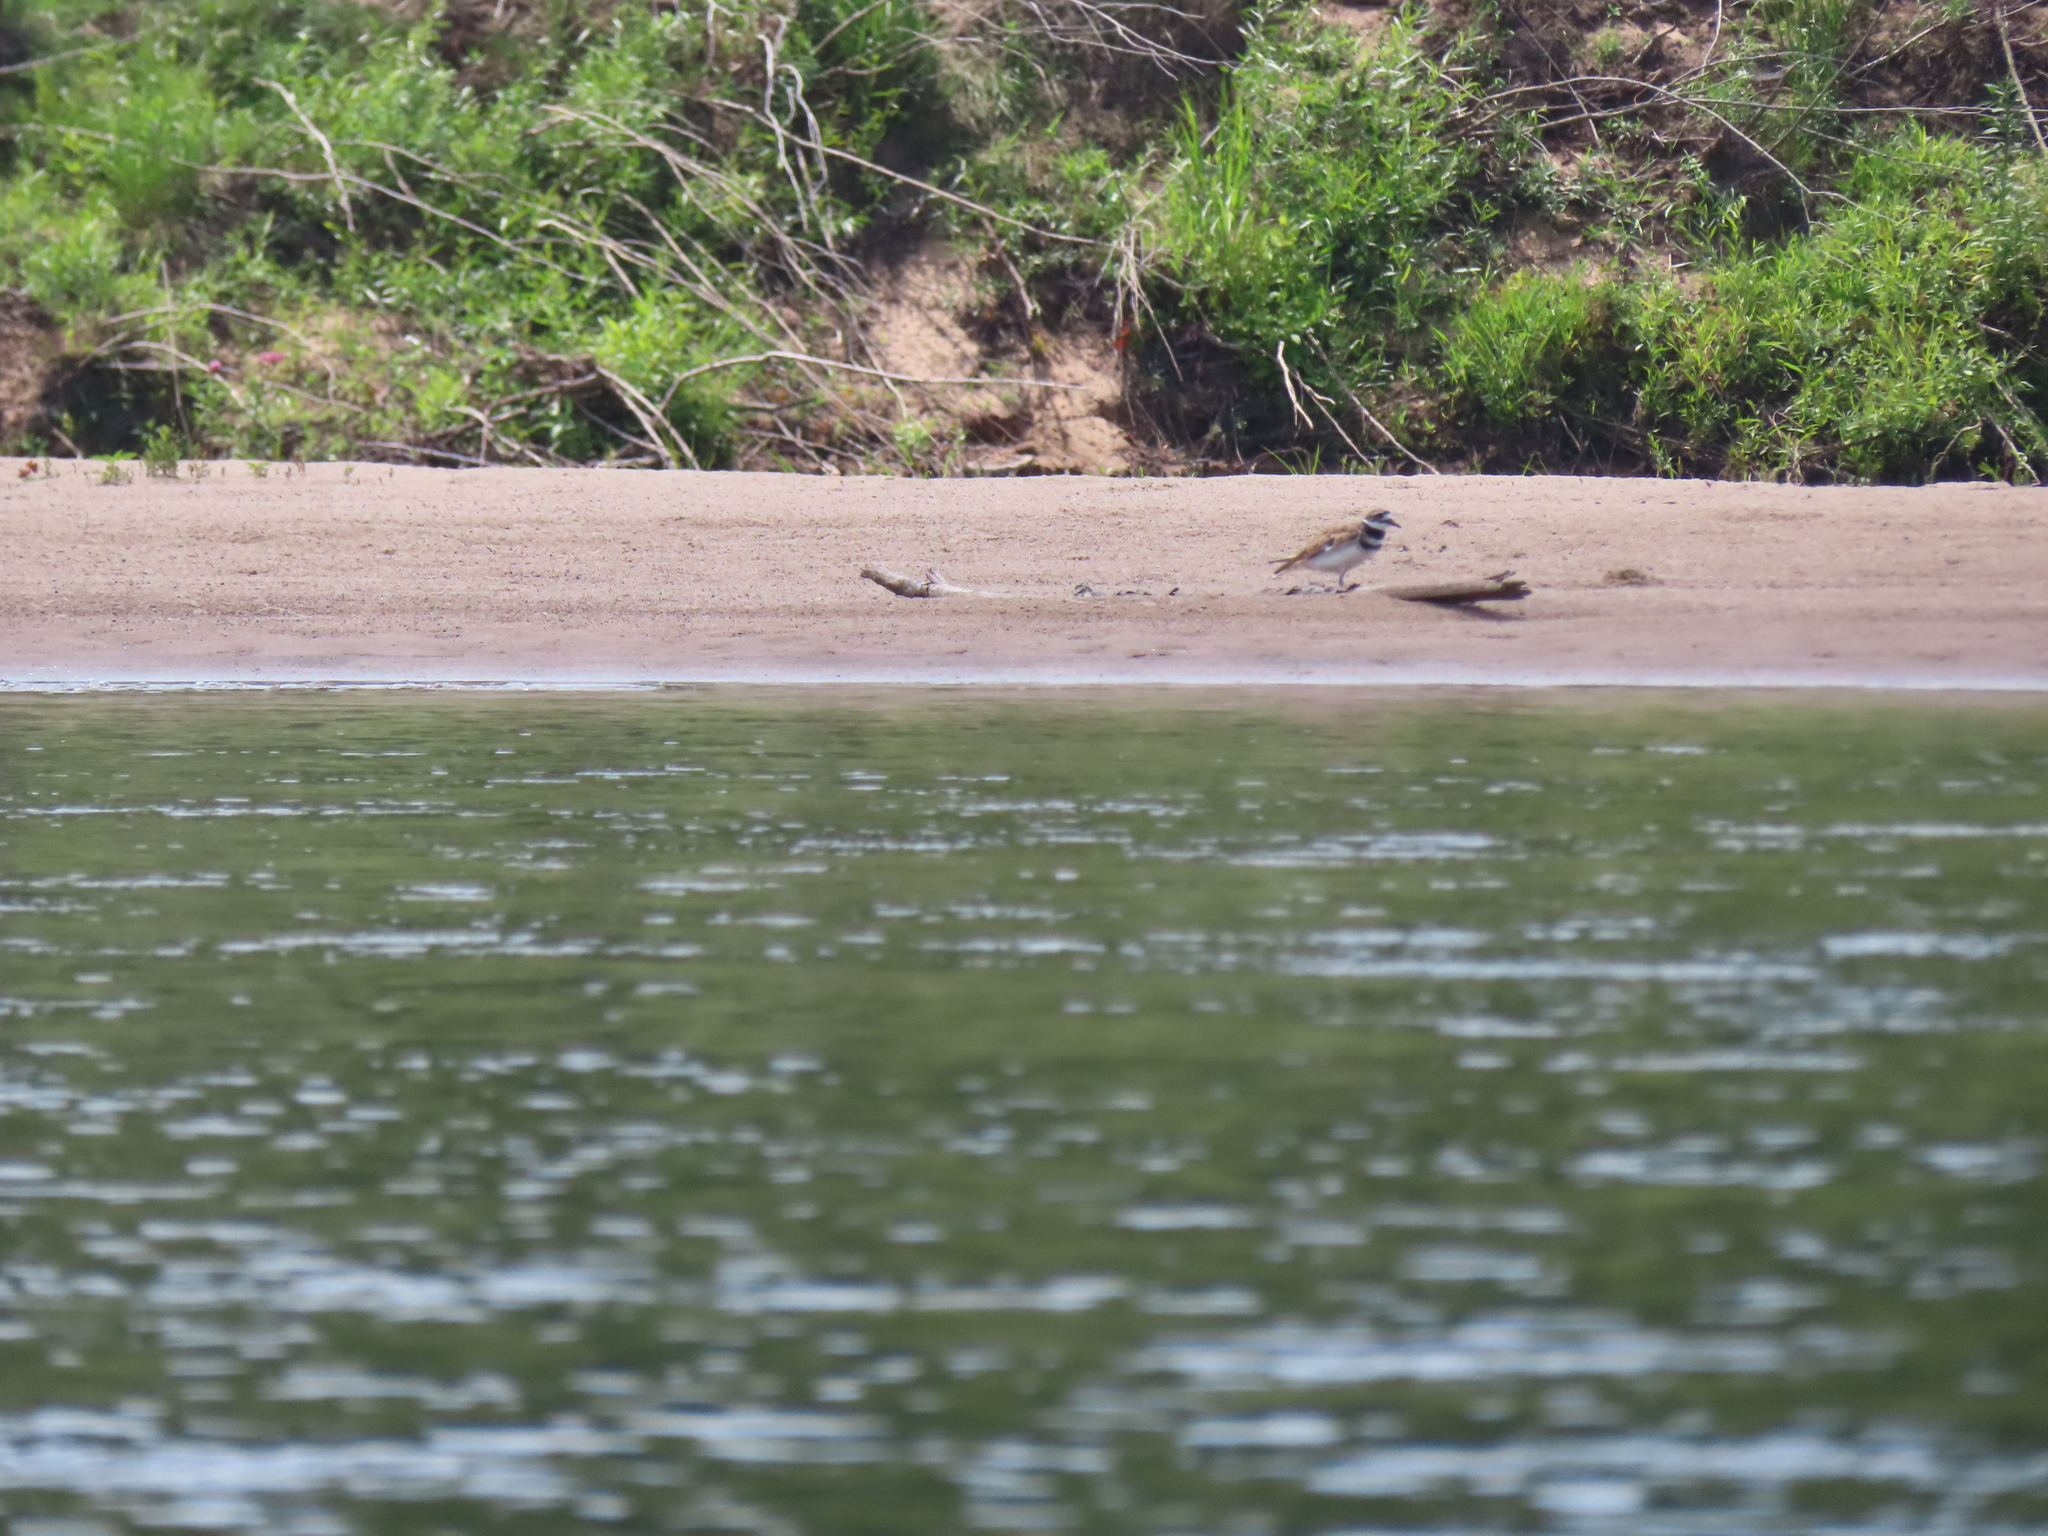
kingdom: Animalia
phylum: Chordata
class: Aves
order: Charadriiformes
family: Charadriidae
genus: Charadrius
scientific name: Charadrius vociferus
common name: Killdeer
